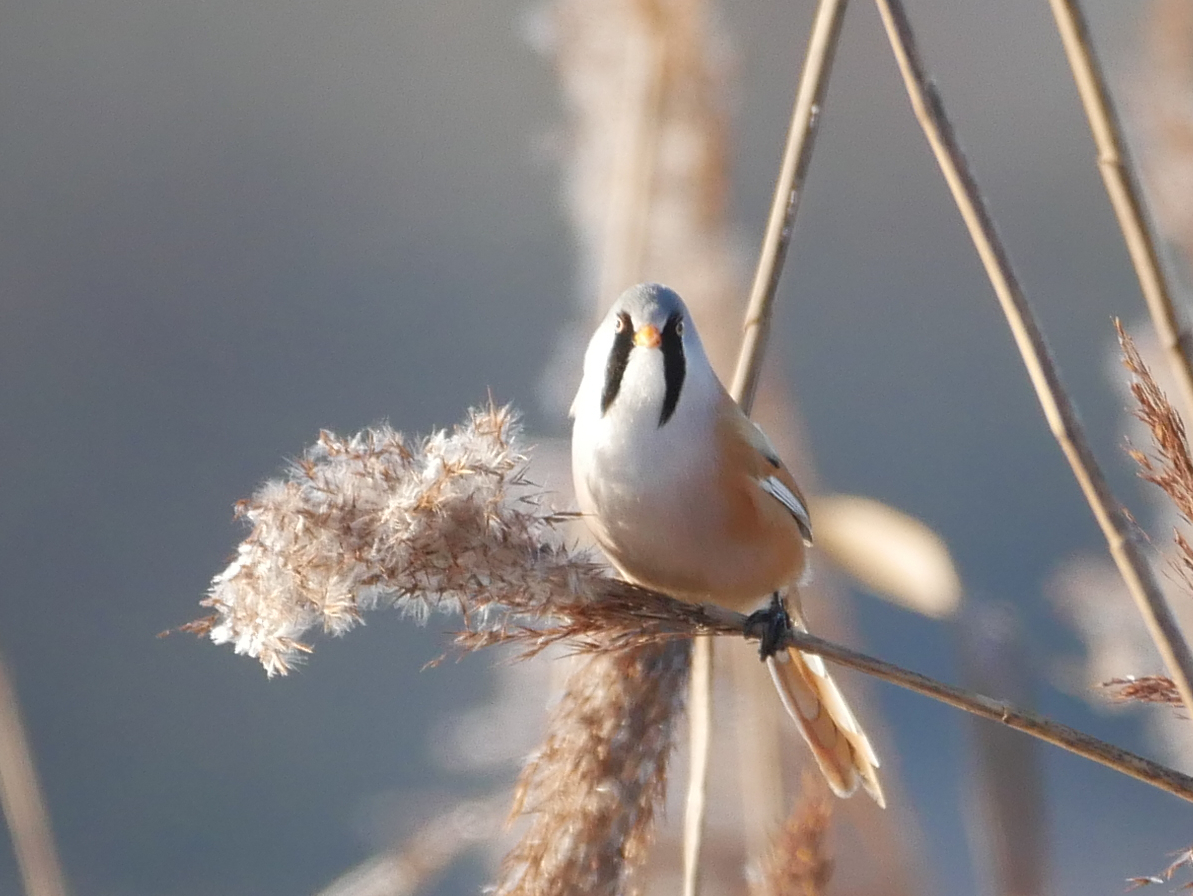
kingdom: Animalia
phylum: Chordata
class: Aves
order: Passeriformes
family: Panuridae
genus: Panurus
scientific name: Panurus biarmicus
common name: Bearded reedling
